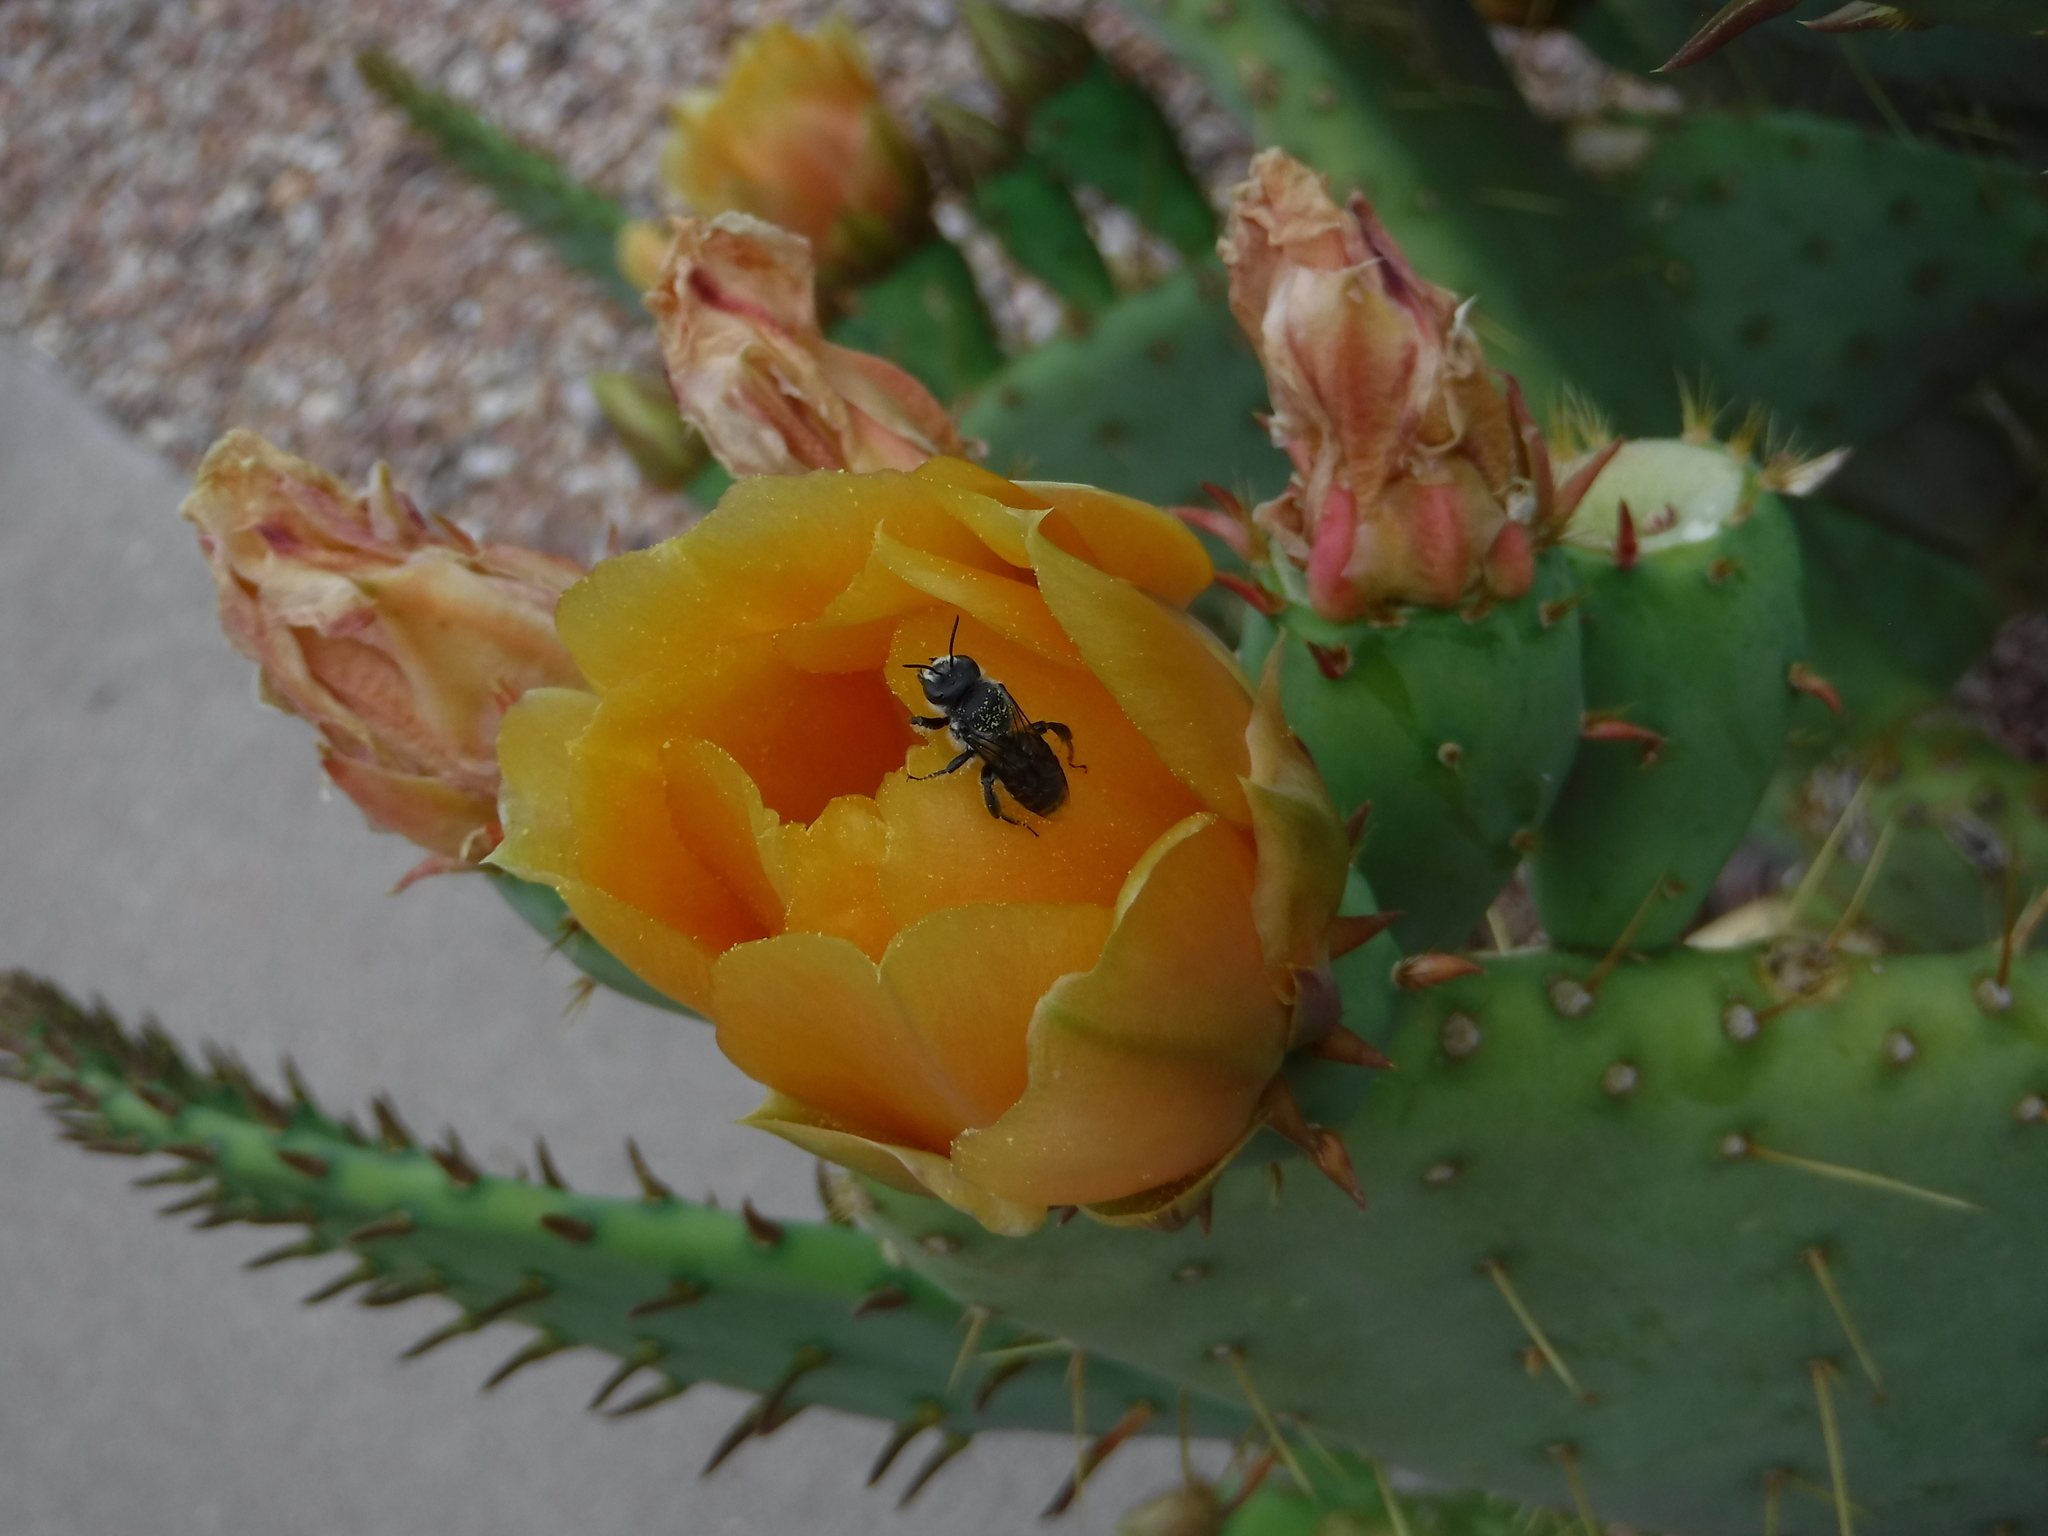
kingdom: Animalia
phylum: Arthropoda
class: Insecta
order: Hymenoptera
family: Megachilidae
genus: Lithurgopsis
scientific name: Lithurgopsis apicalis
